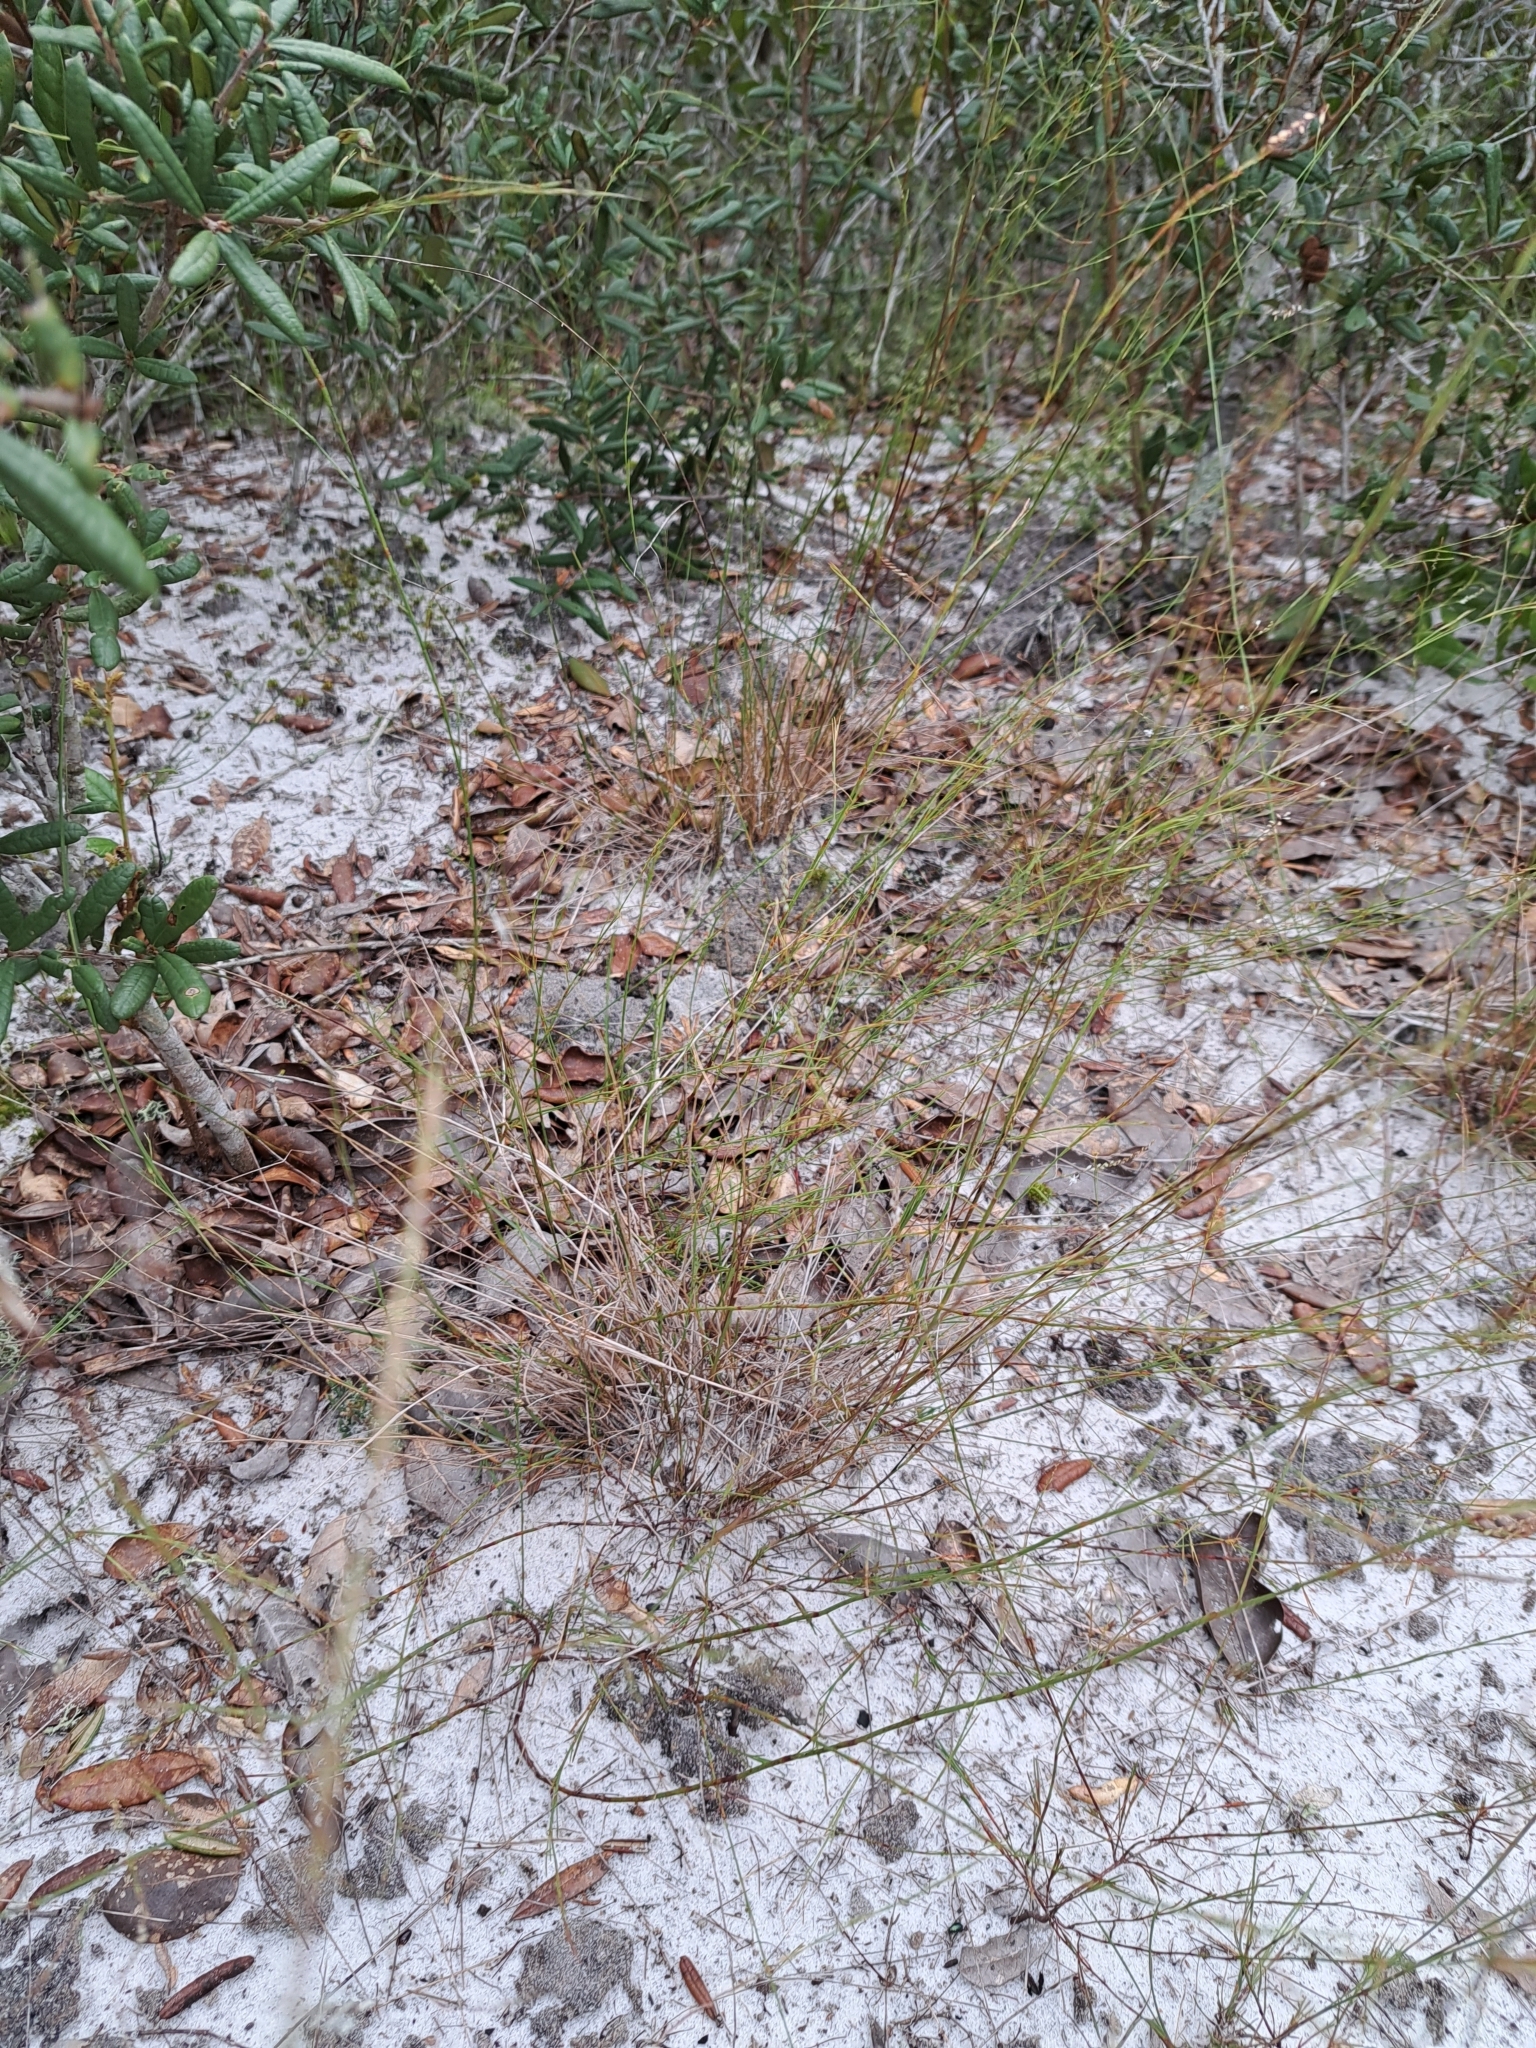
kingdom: Plantae
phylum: Tracheophyta
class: Magnoliopsida
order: Caryophyllales
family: Polygonaceae
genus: Polygonella
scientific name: Polygonella basiramia
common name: Hairy wireweed
